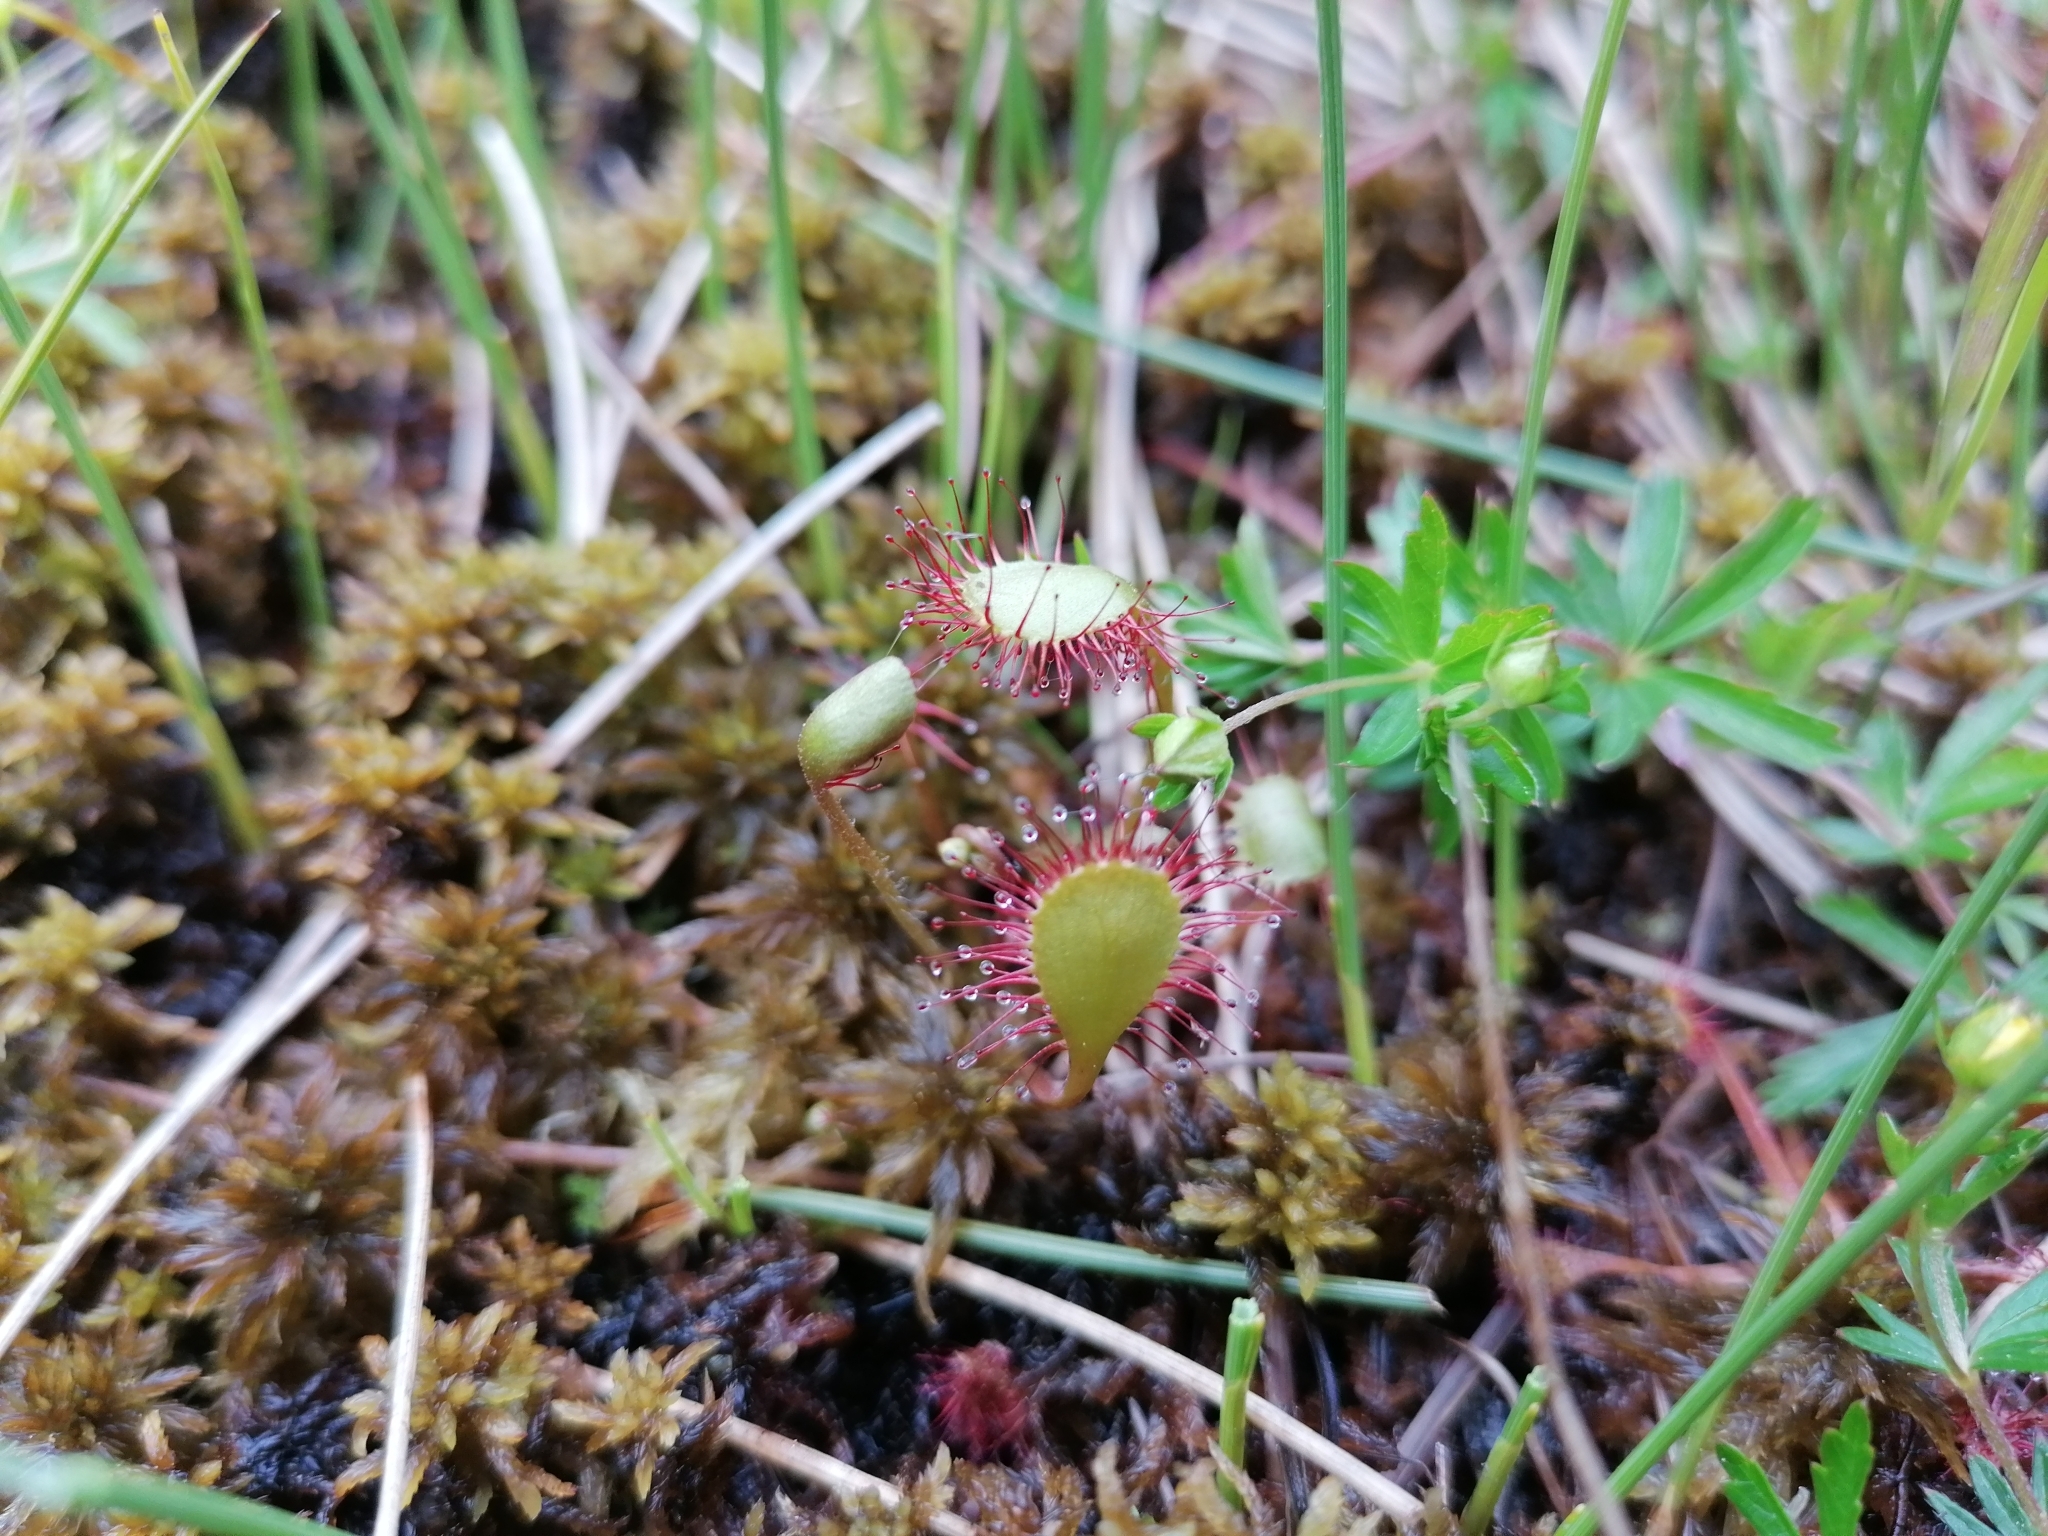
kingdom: Plantae
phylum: Tracheophyta
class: Magnoliopsida
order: Caryophyllales
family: Droseraceae
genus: Drosera
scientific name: Drosera rotundifolia
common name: Round-leaved sundew
